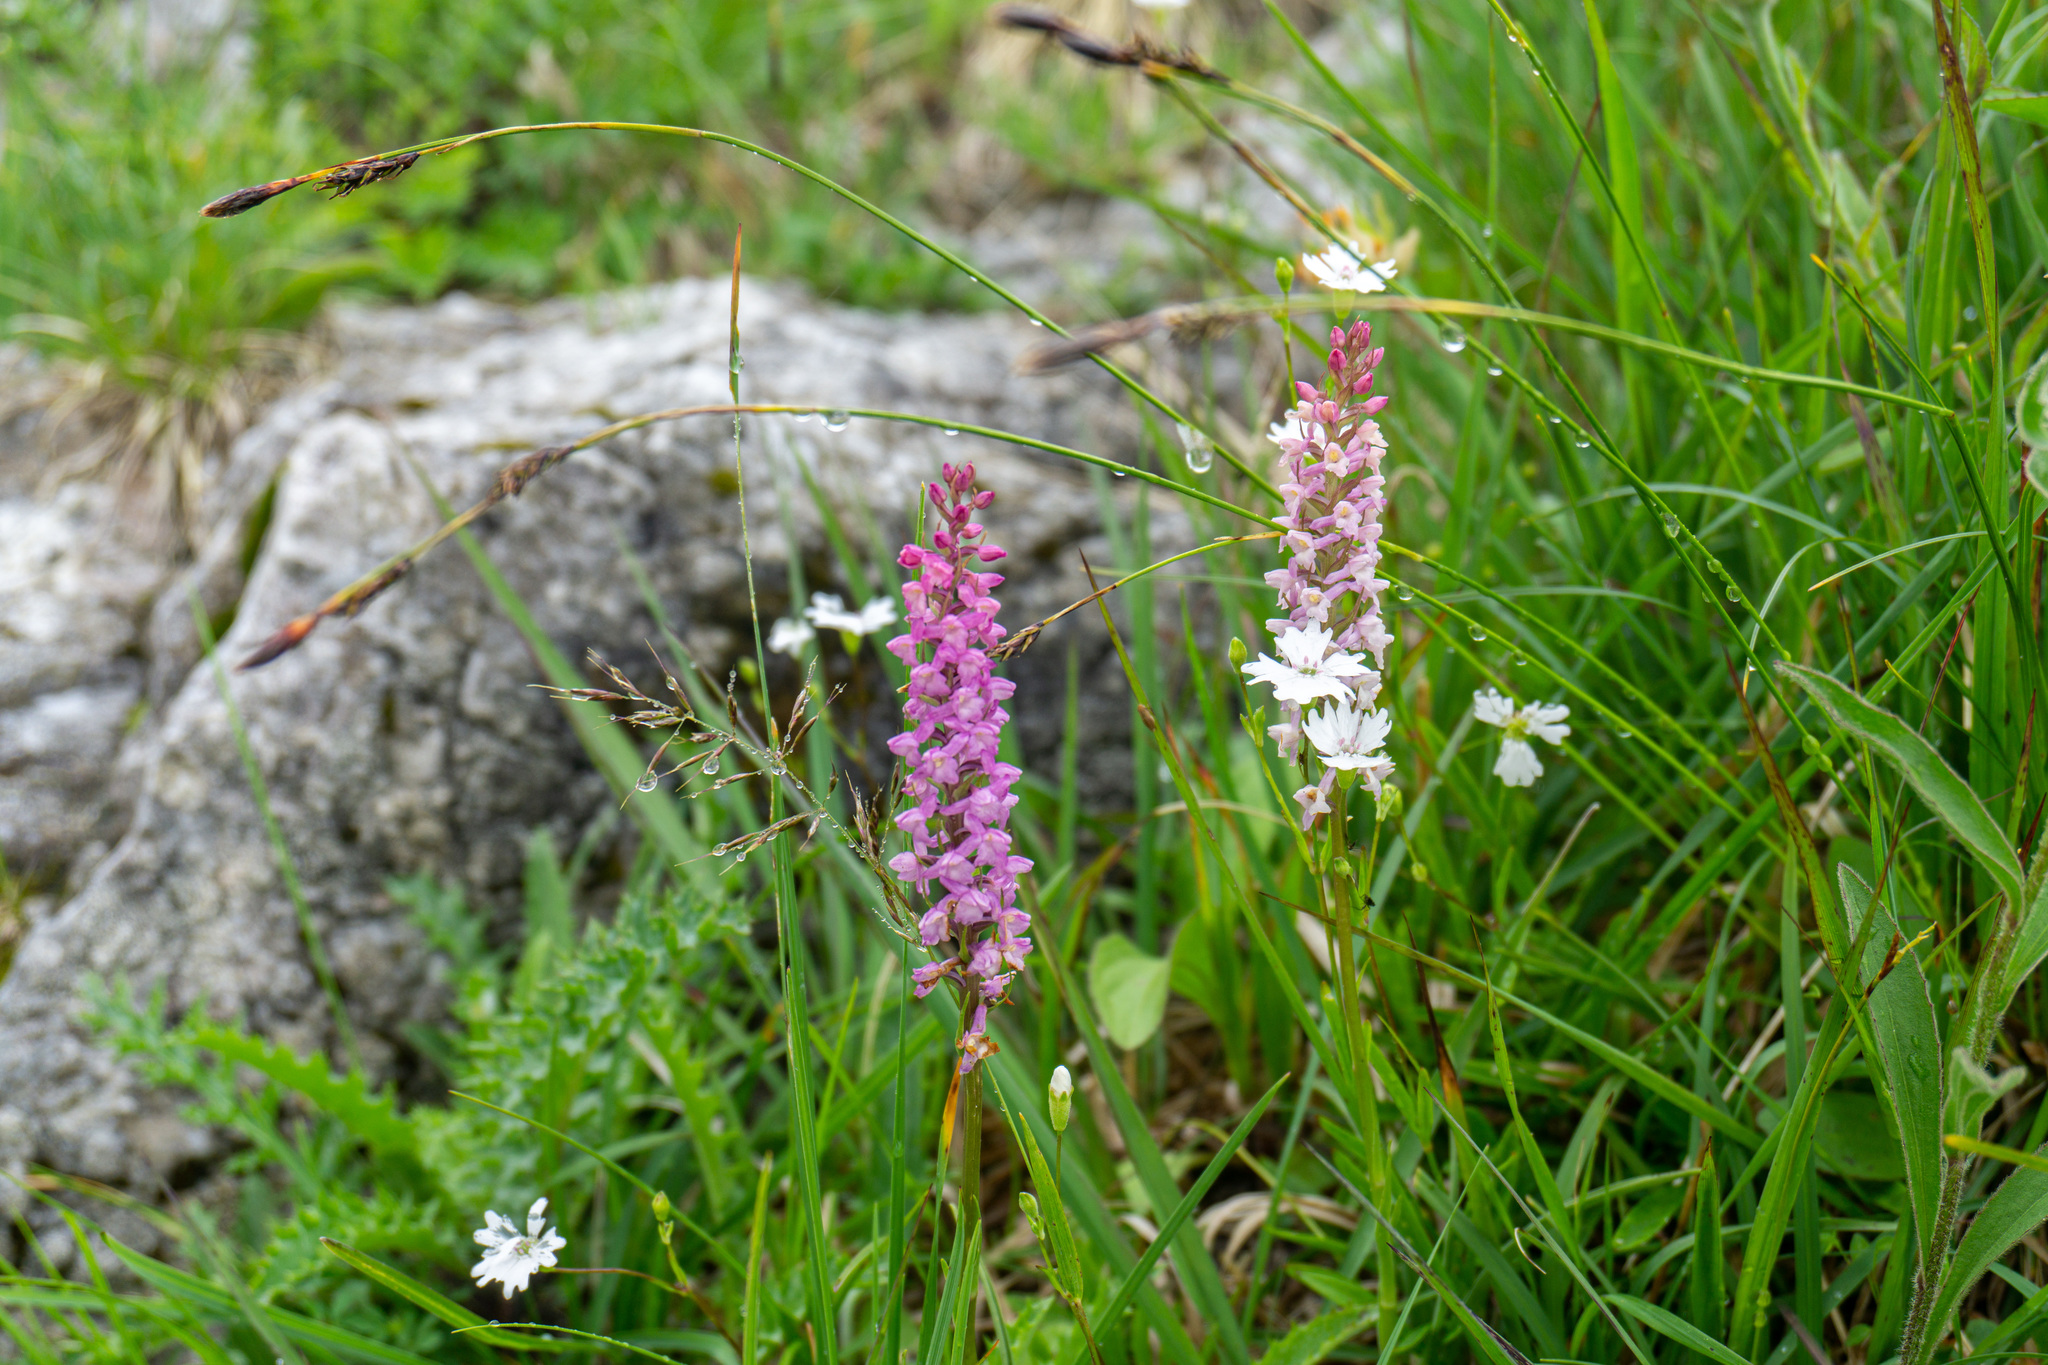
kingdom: Plantae
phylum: Tracheophyta
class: Liliopsida
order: Asparagales
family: Orchidaceae
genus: Gymnadenia
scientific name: Gymnadenia odoratissima
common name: Scented gymnadenia
